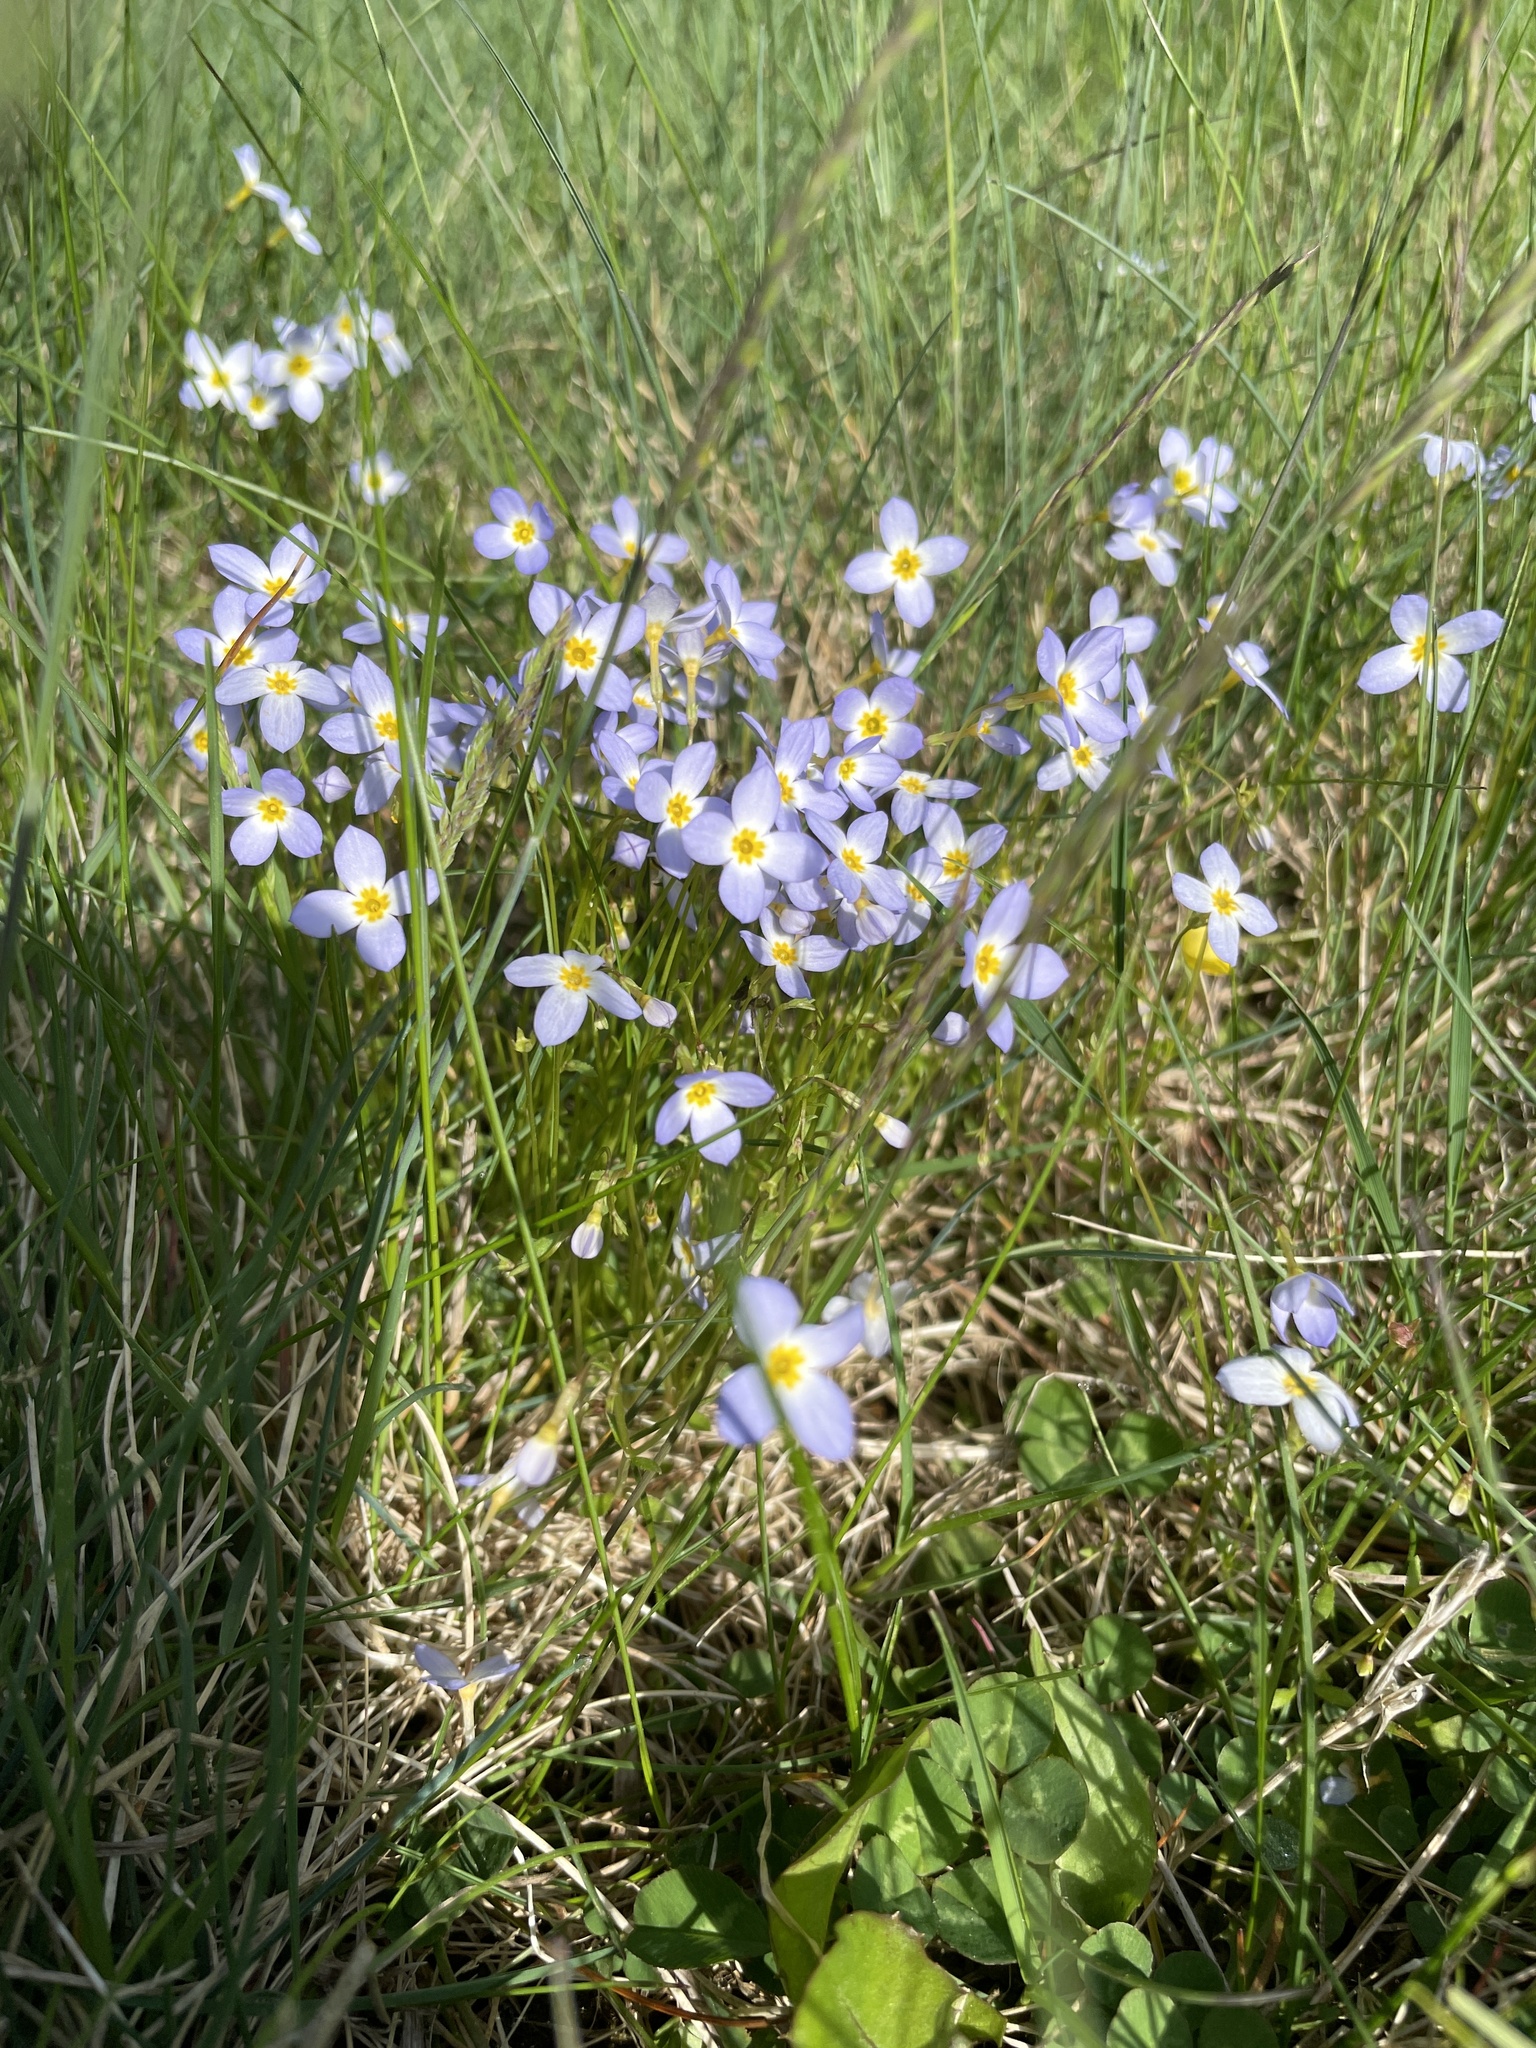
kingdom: Plantae
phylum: Tracheophyta
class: Magnoliopsida
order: Gentianales
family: Rubiaceae
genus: Houstonia
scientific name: Houstonia caerulea
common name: Bluets
